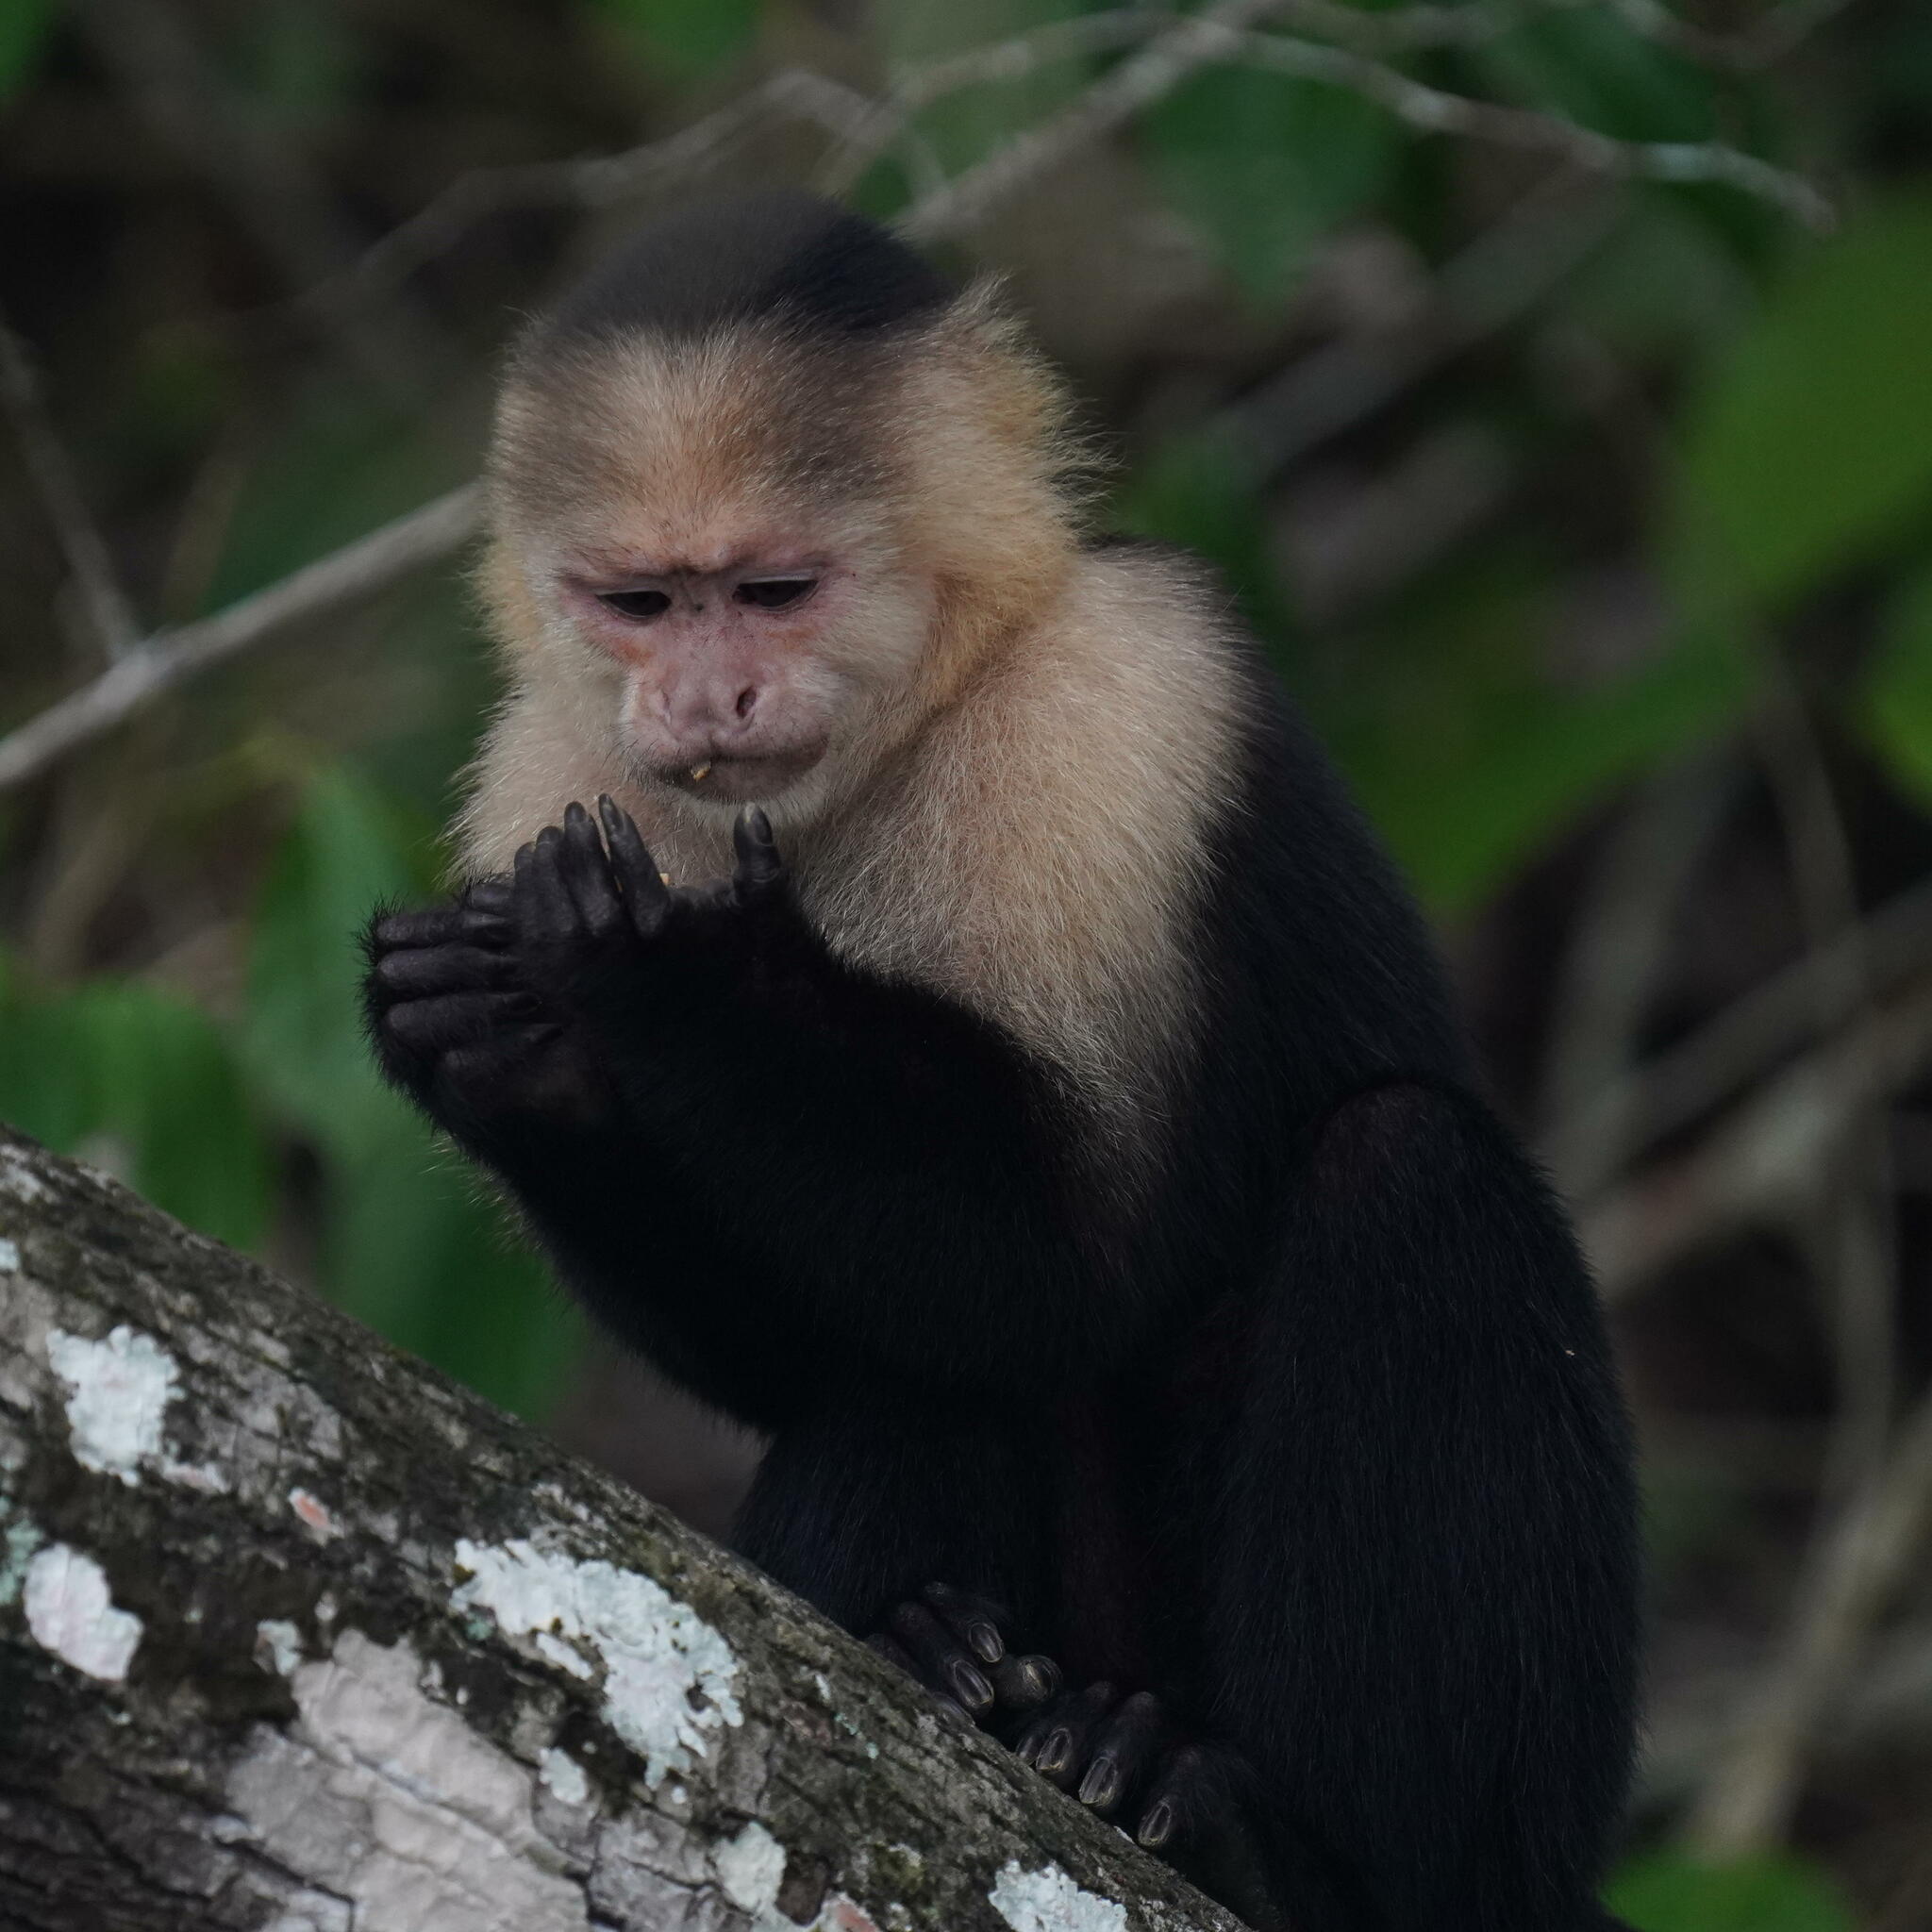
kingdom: Animalia
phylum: Chordata
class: Mammalia
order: Primates
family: Cebidae
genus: Cebus
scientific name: Cebus imitator
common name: Panamanian white-faced capuchin
